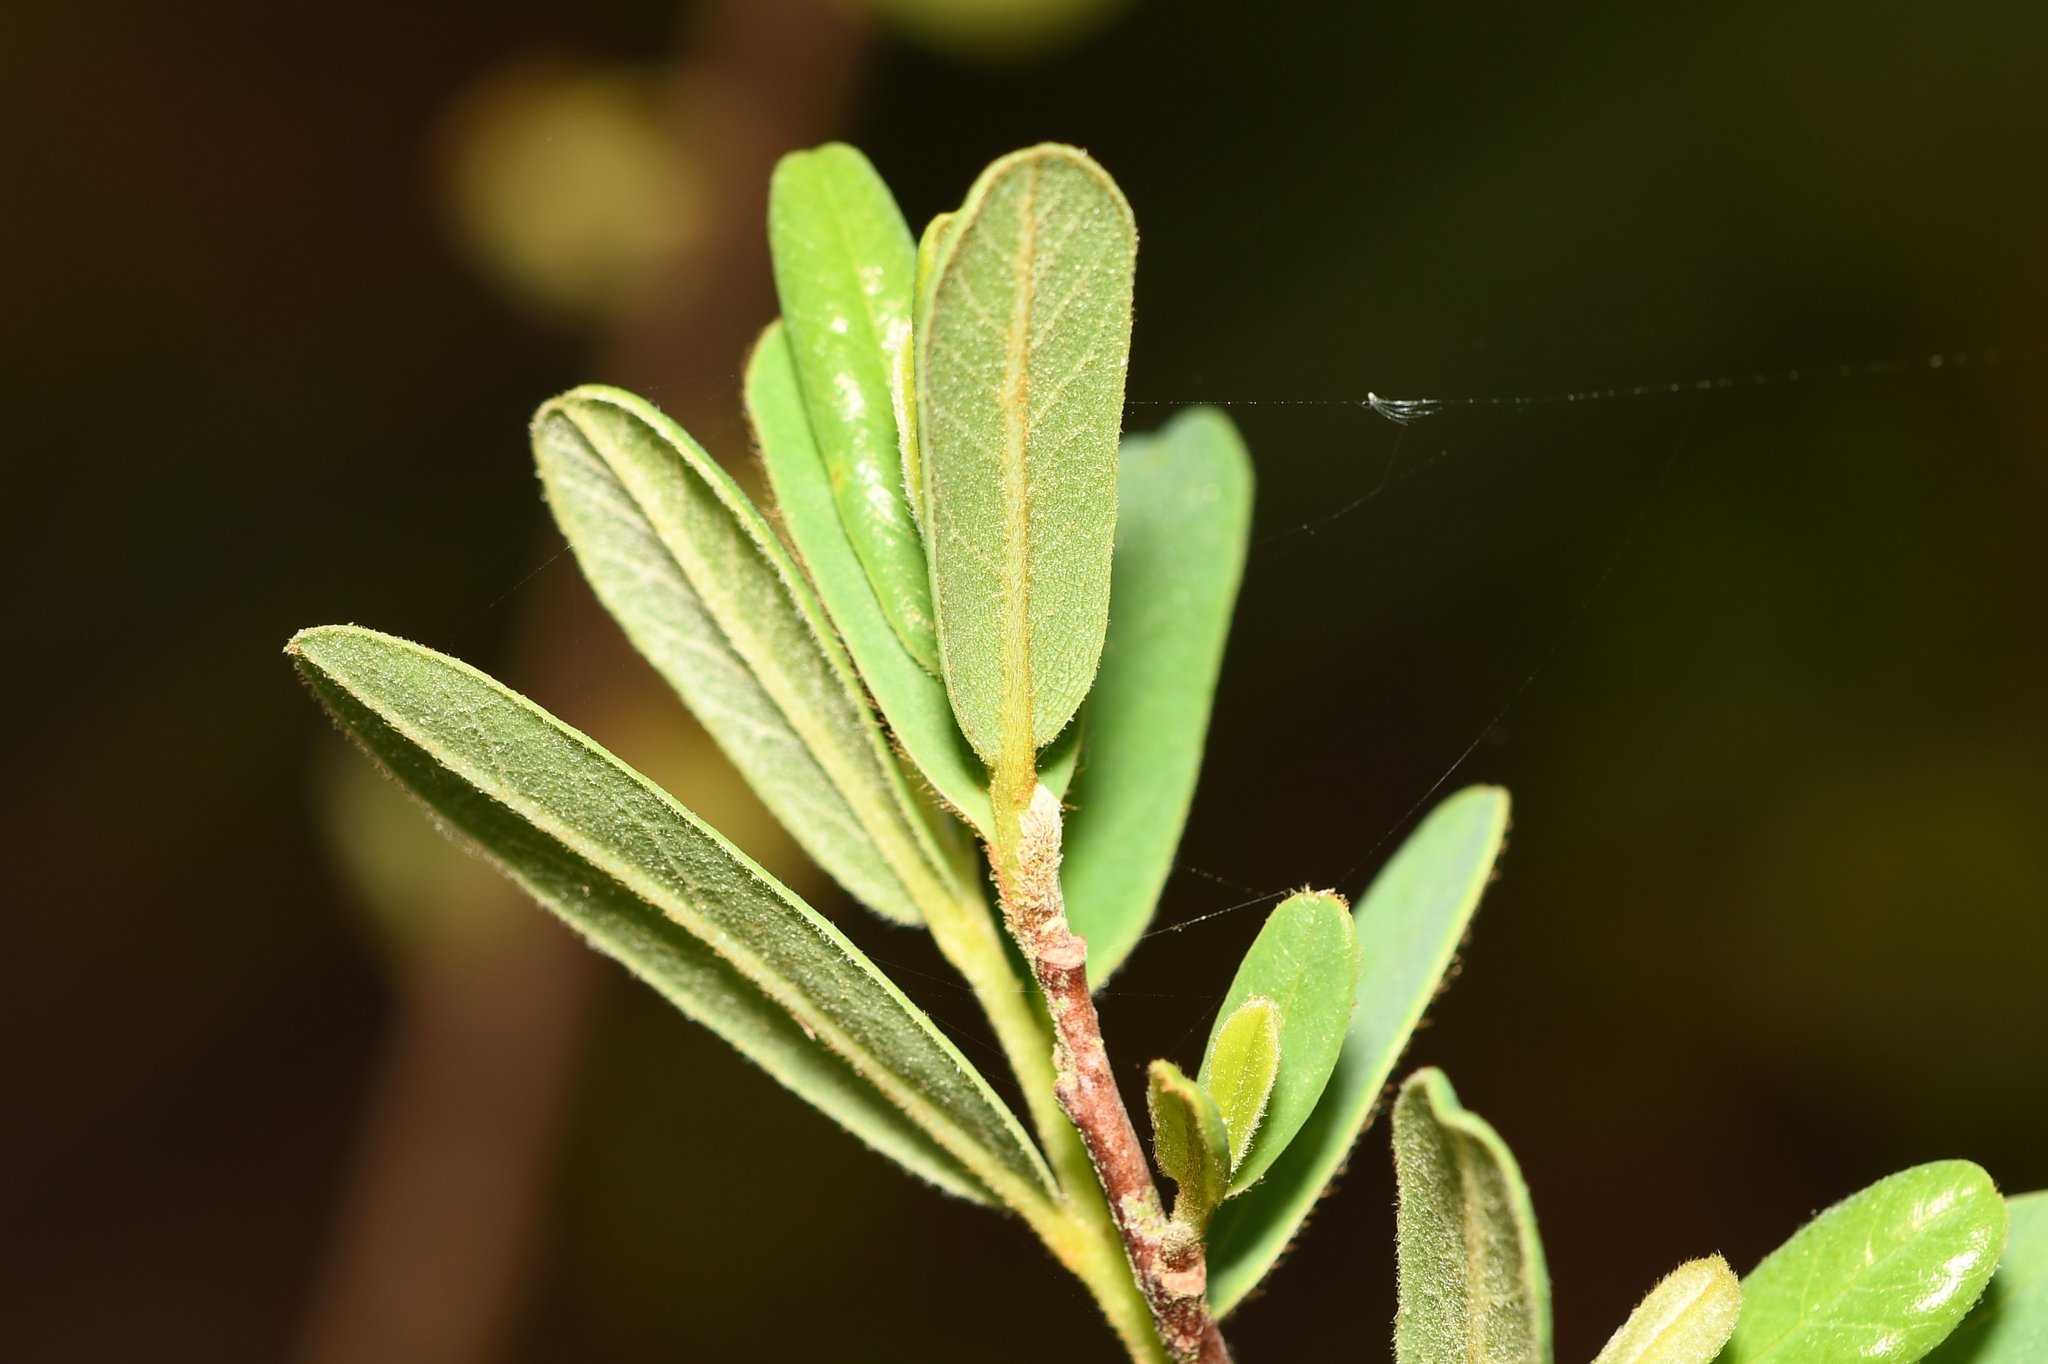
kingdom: Plantae
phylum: Tracheophyta
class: Magnoliopsida
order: Magnoliales
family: Annonaceae
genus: Asimina
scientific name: Asimina reticulata
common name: Flag pawpaw
